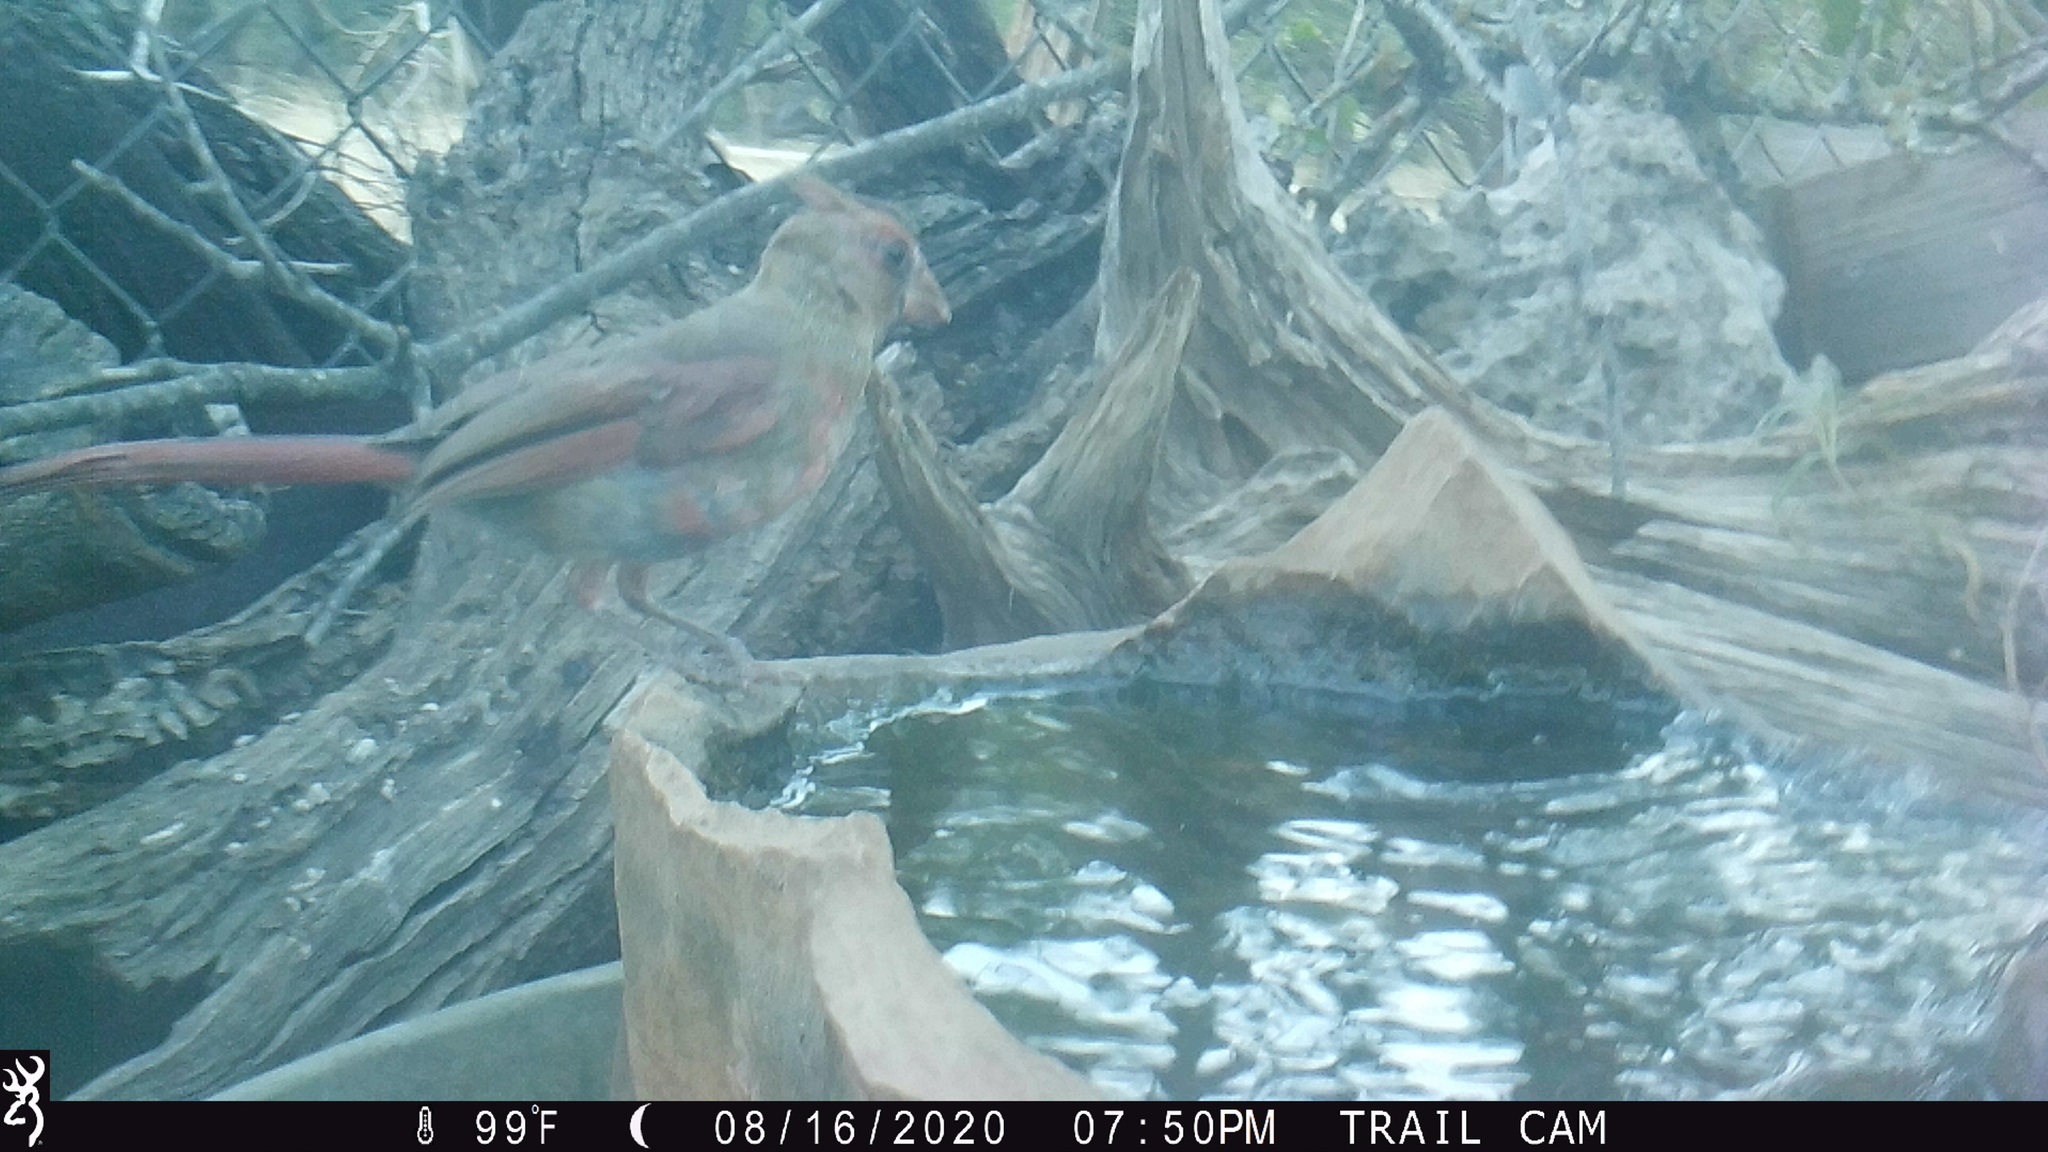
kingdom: Animalia
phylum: Chordata
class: Aves
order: Passeriformes
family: Cardinalidae
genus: Cardinalis
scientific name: Cardinalis cardinalis
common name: Northern cardinal
